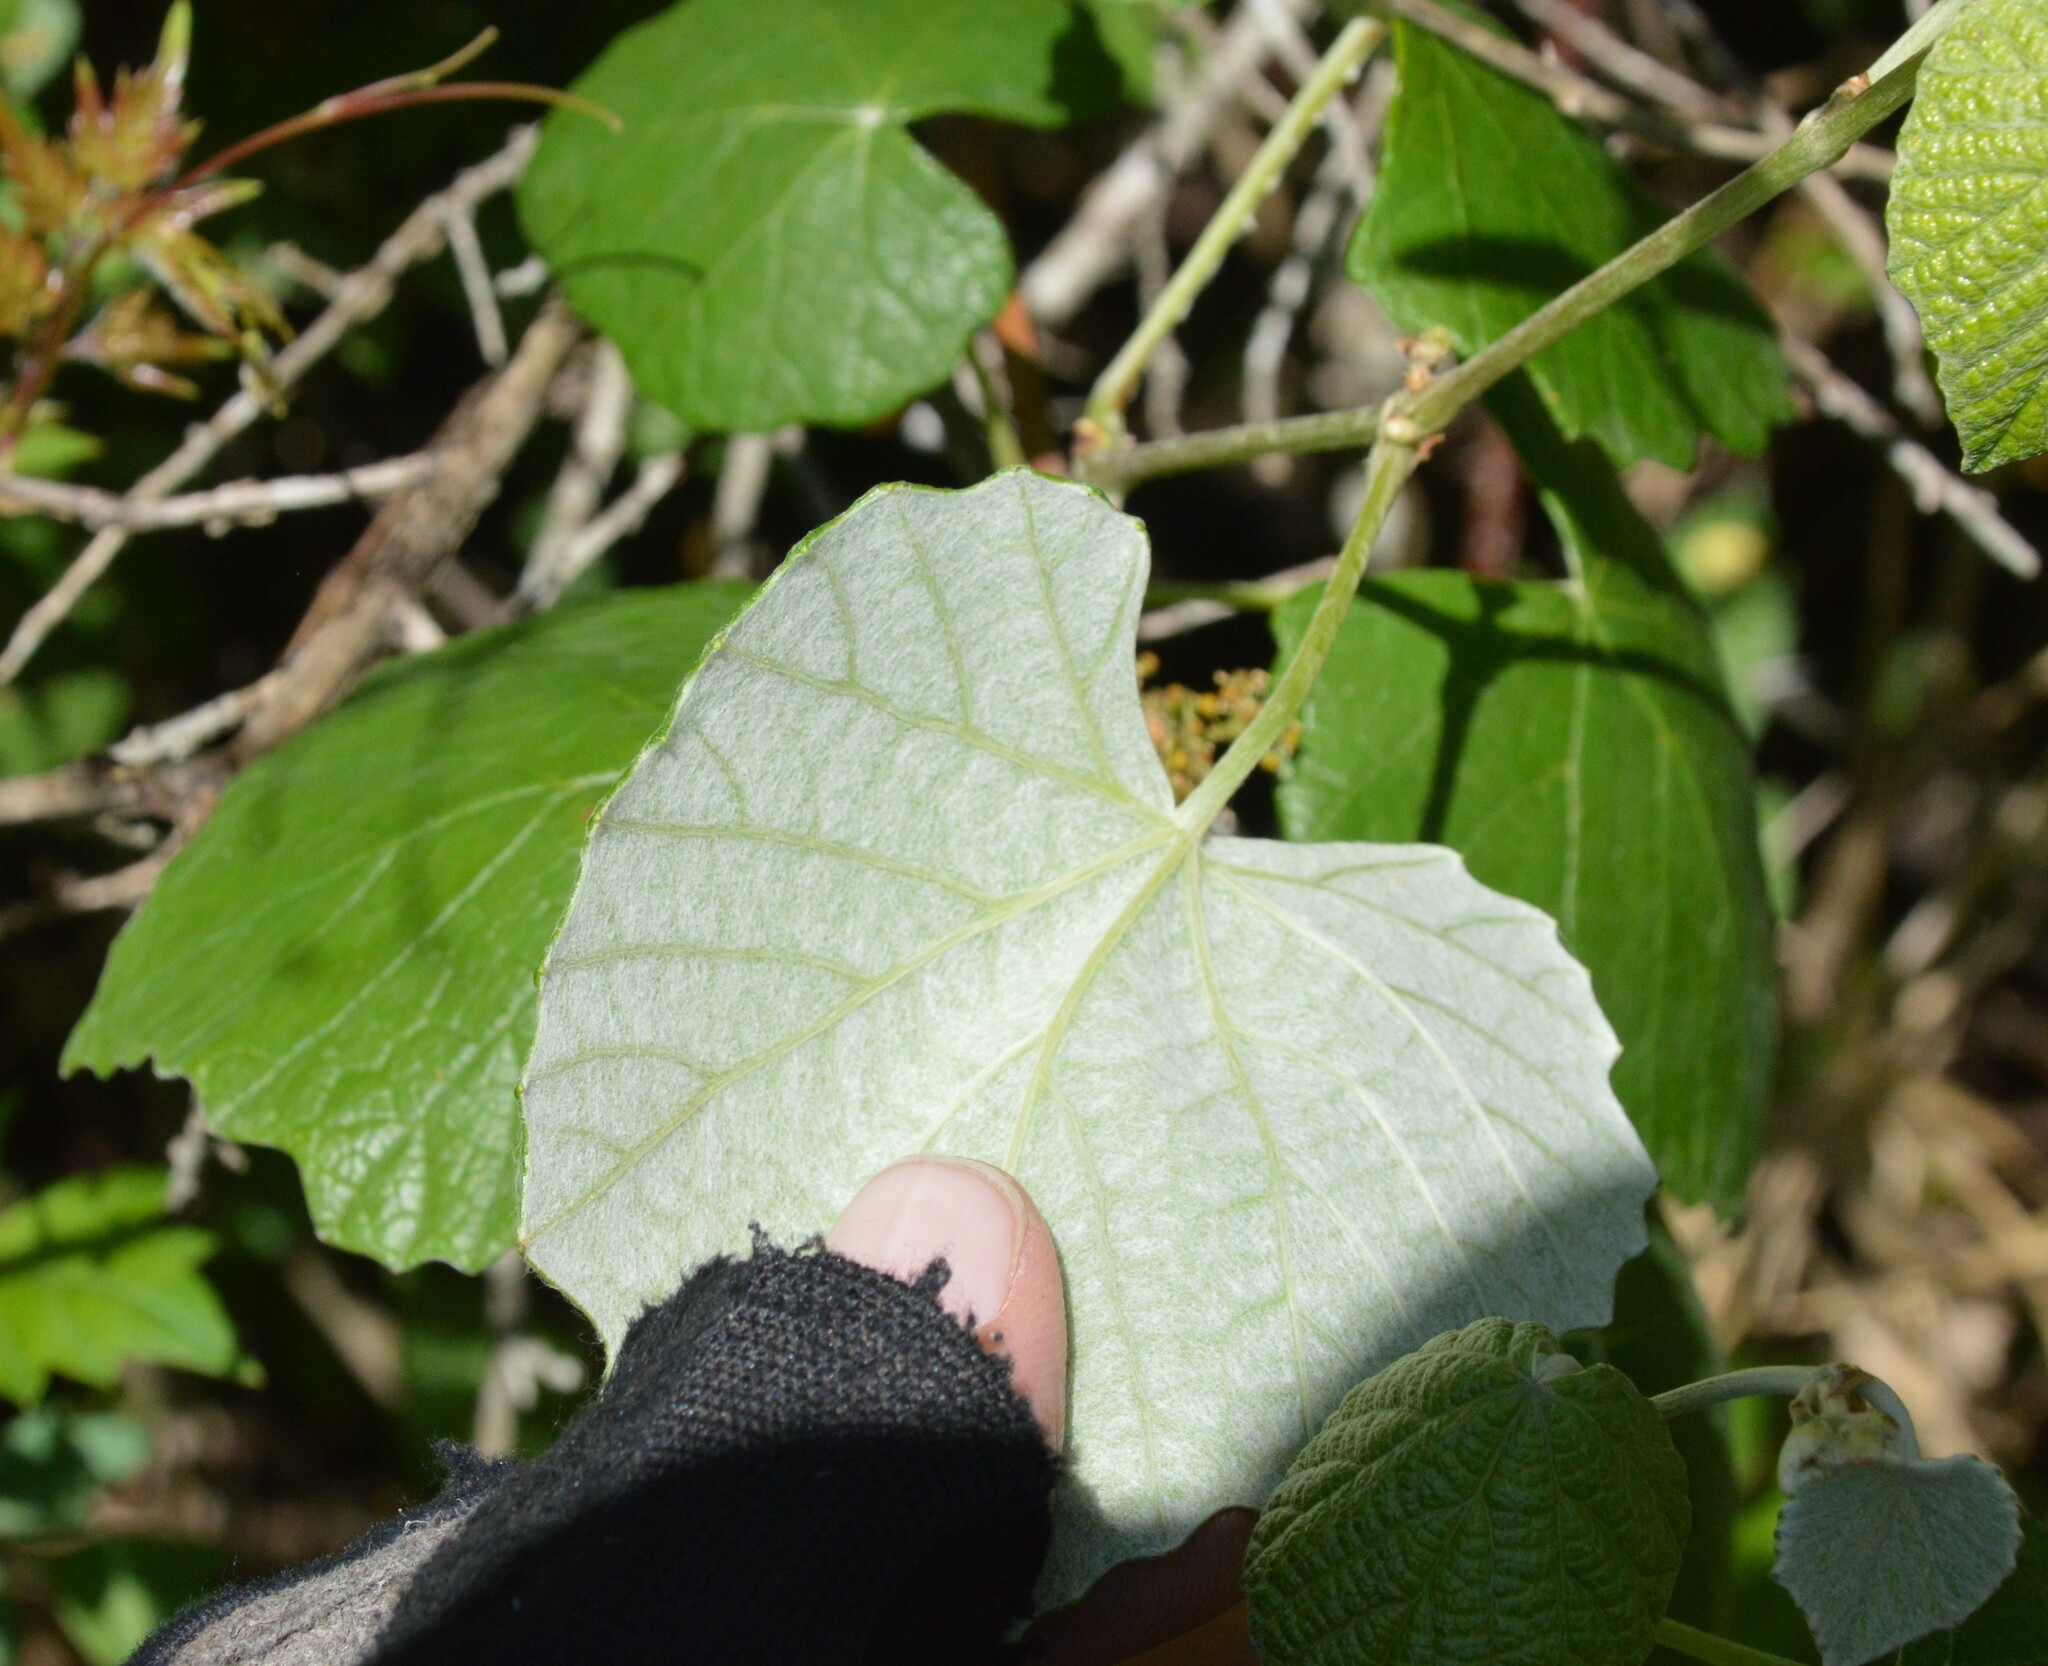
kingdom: Plantae
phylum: Tracheophyta
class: Magnoliopsida
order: Vitales
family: Vitaceae
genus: Vitis
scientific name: Vitis mustangensis
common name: Mustang grape
